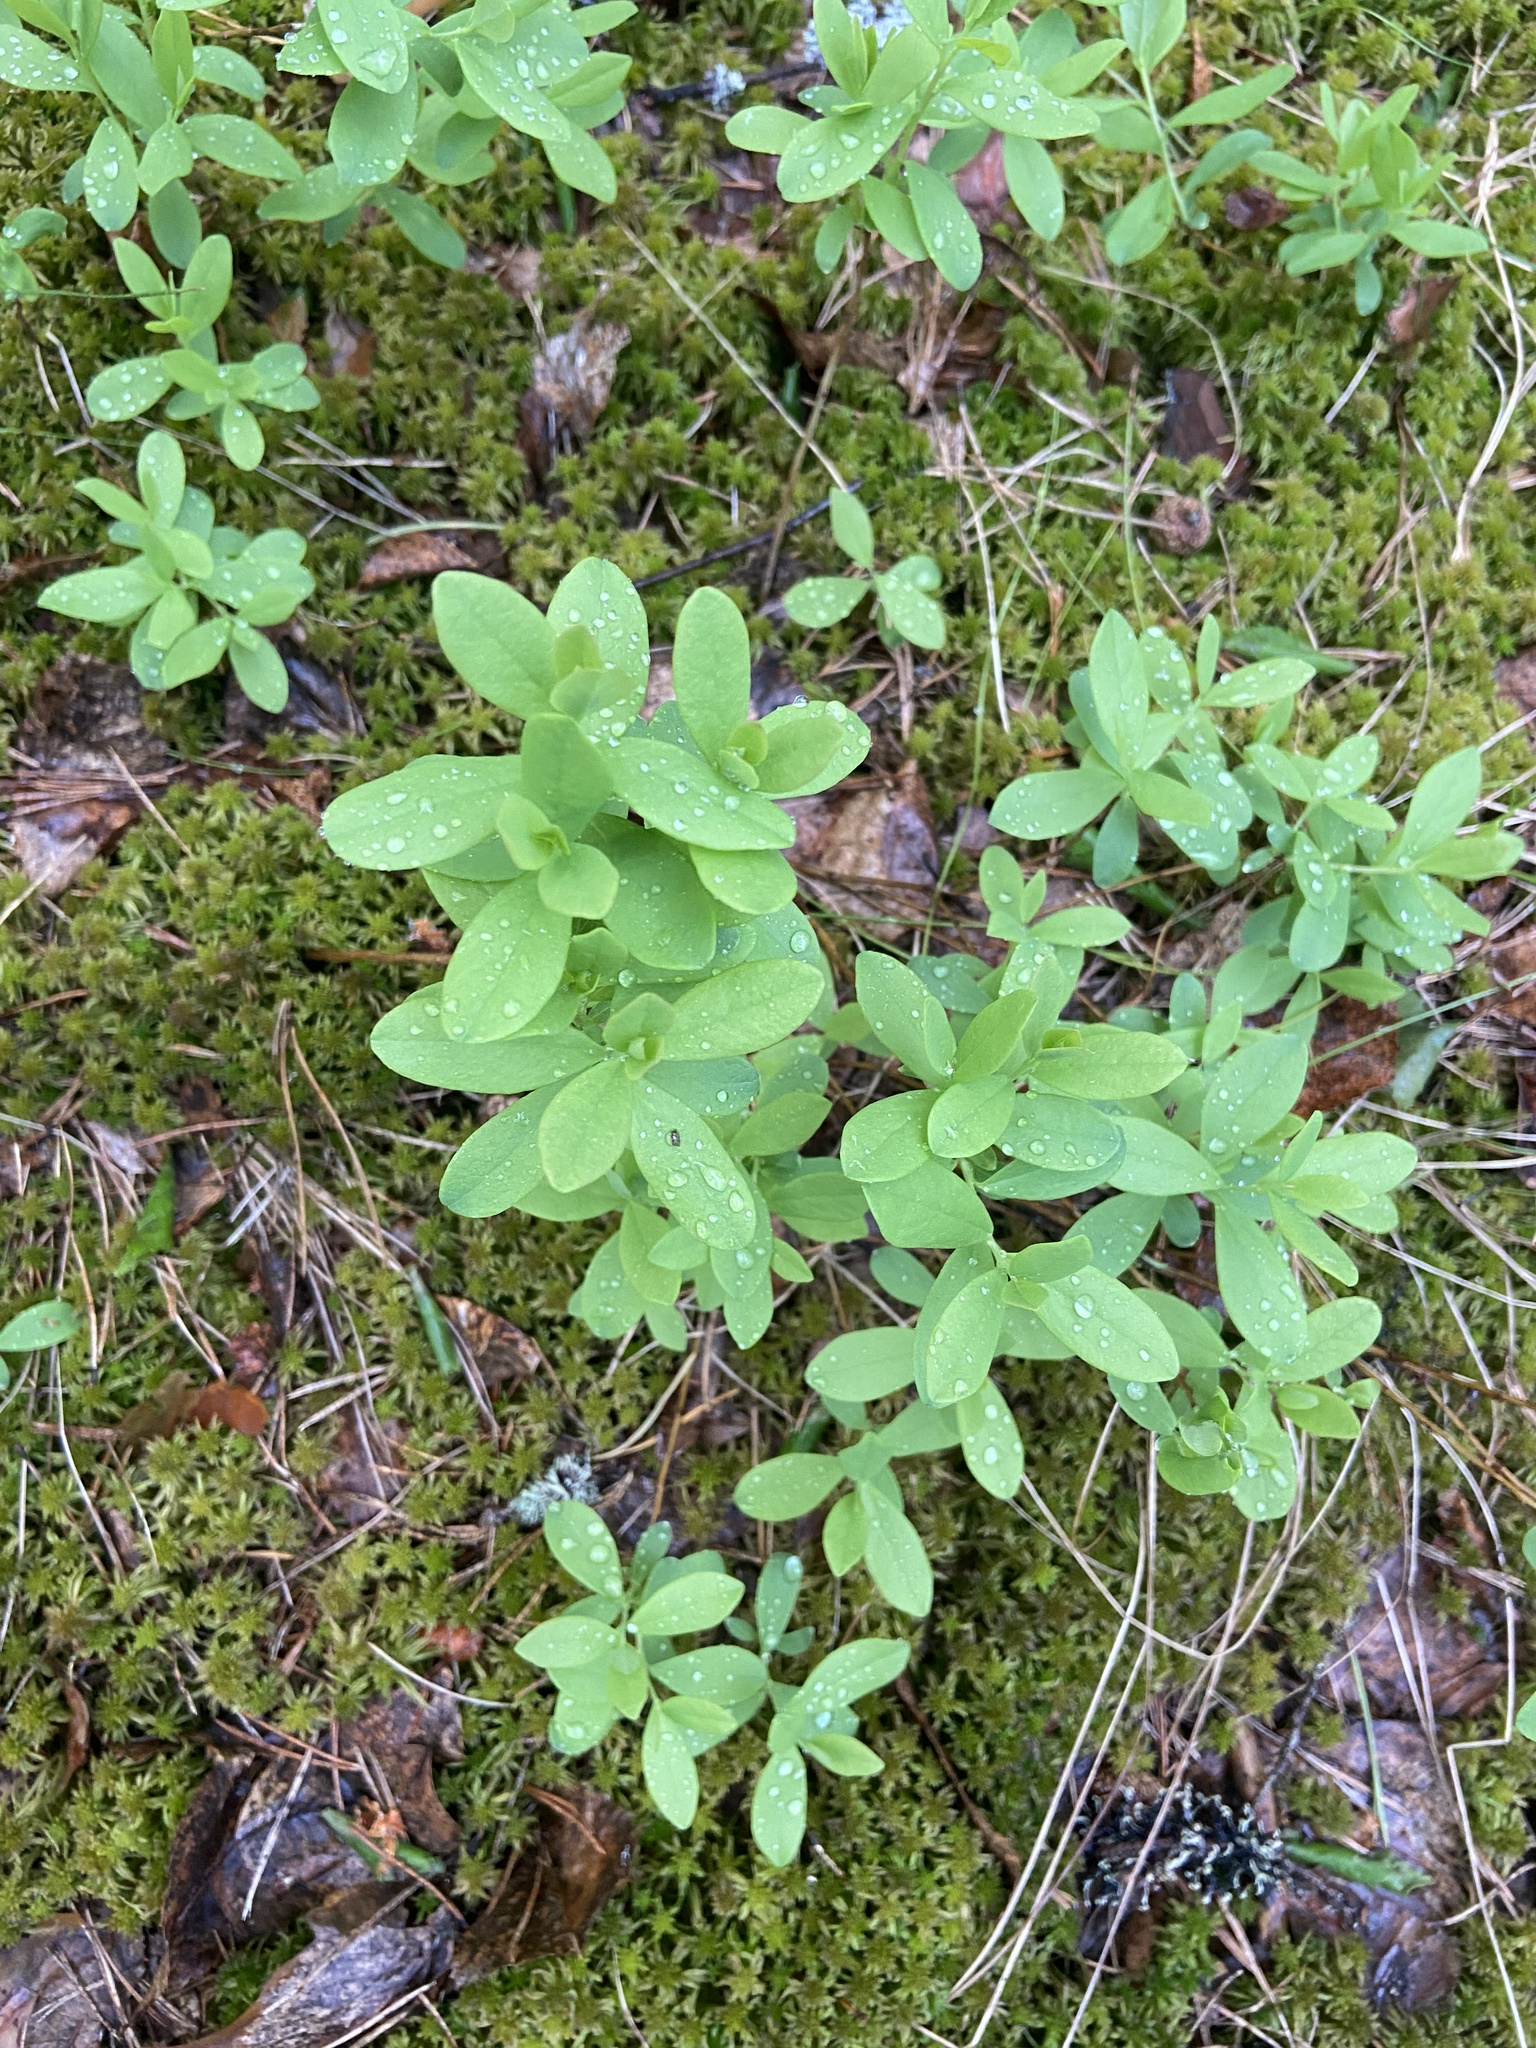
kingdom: Plantae
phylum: Tracheophyta
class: Magnoliopsida
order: Ericales
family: Ericaceae
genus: Vaccinium
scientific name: Vaccinium uliginosum
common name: Bog bilberry
